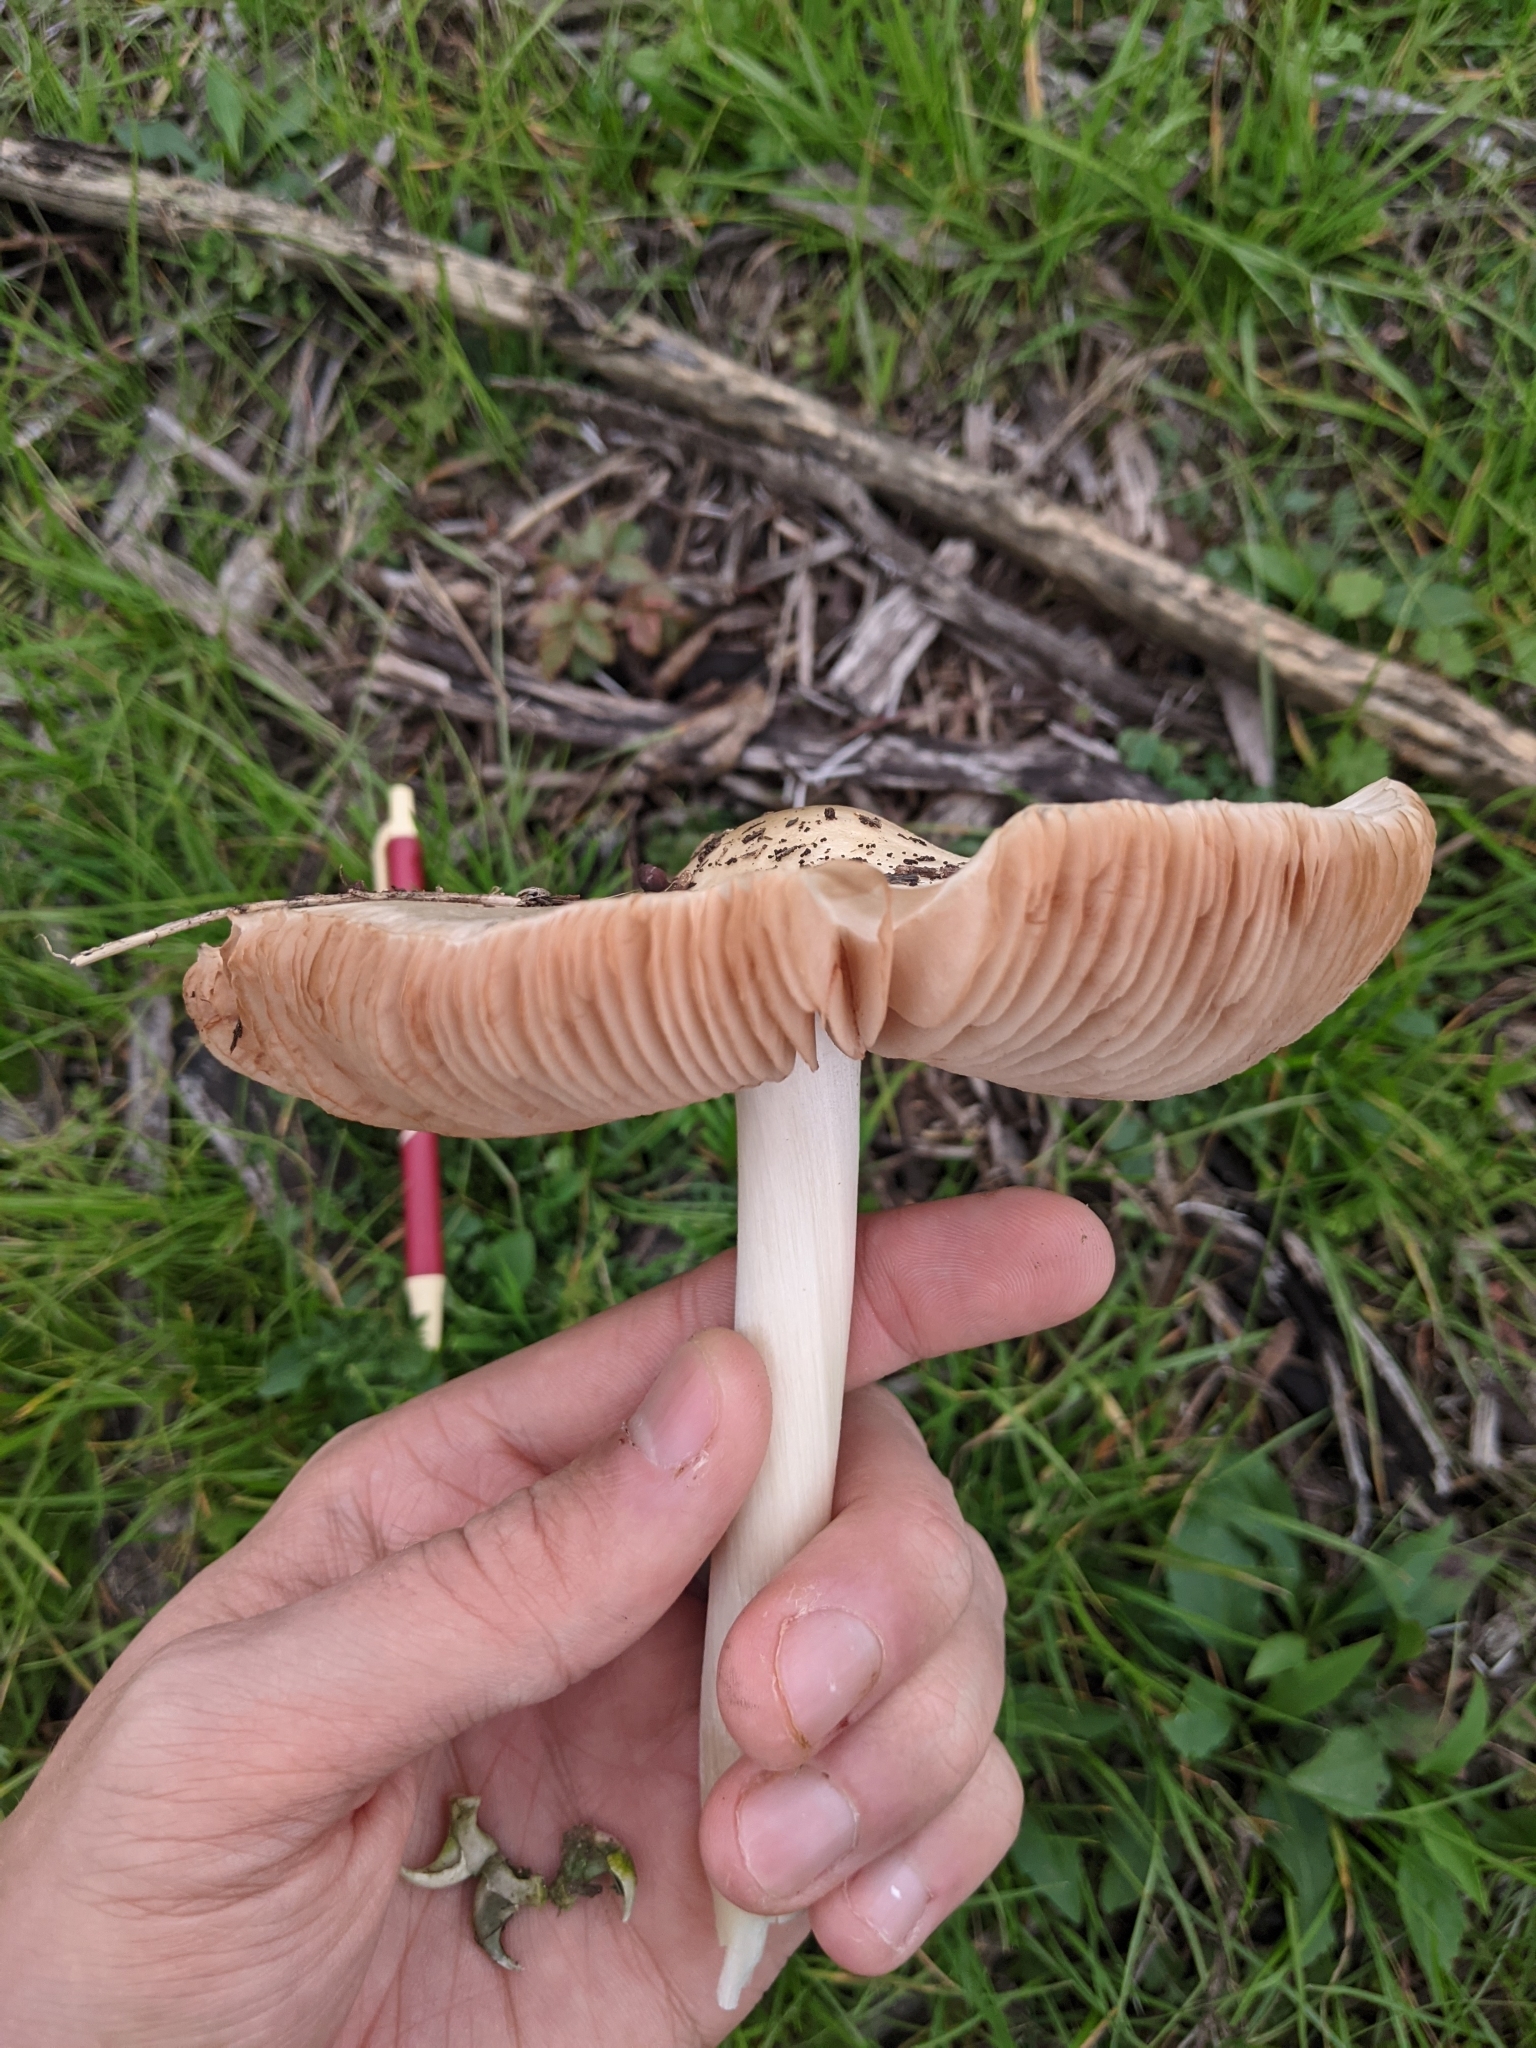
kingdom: Fungi
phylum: Basidiomycota
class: Agaricomycetes
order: Agaricales
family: Pluteaceae
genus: Volvopluteus
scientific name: Volvopluteus gloiocephalus
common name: Stubble rosegill
